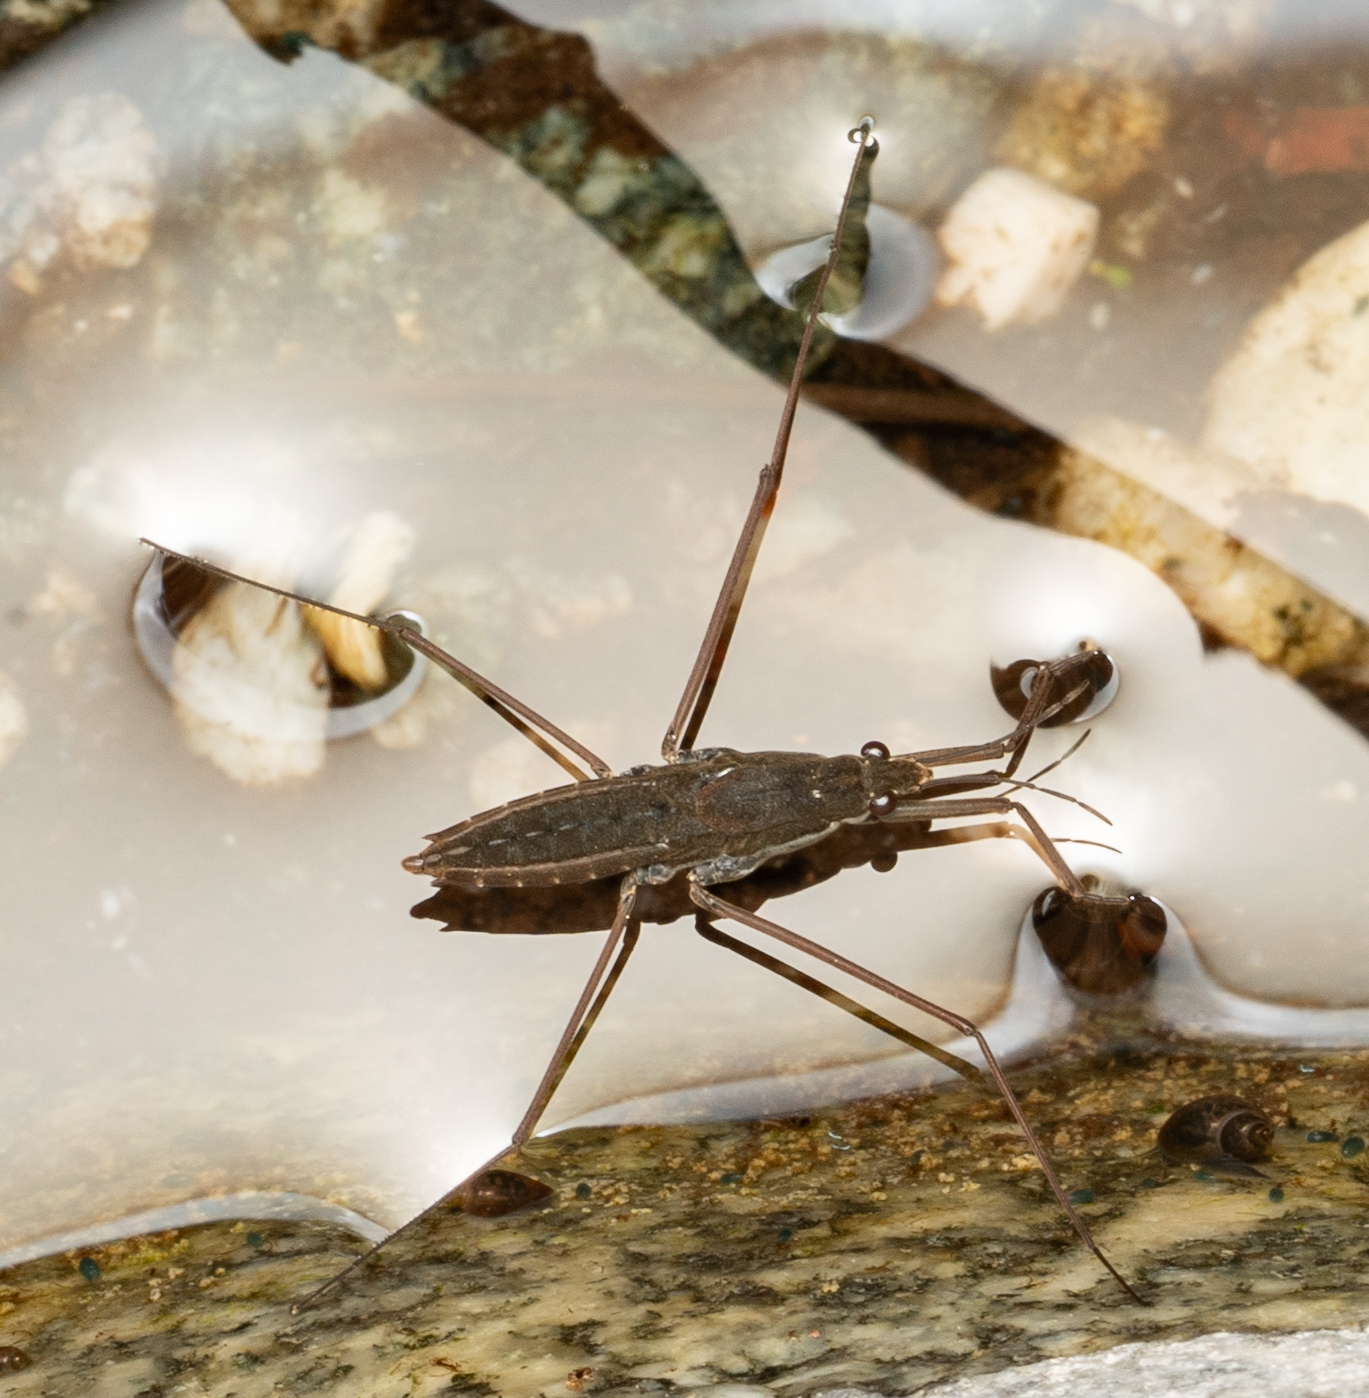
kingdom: Animalia
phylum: Arthropoda
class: Insecta
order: Hemiptera
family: Gerridae
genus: Aquarius
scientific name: Aquarius remigis
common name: Common water strider
